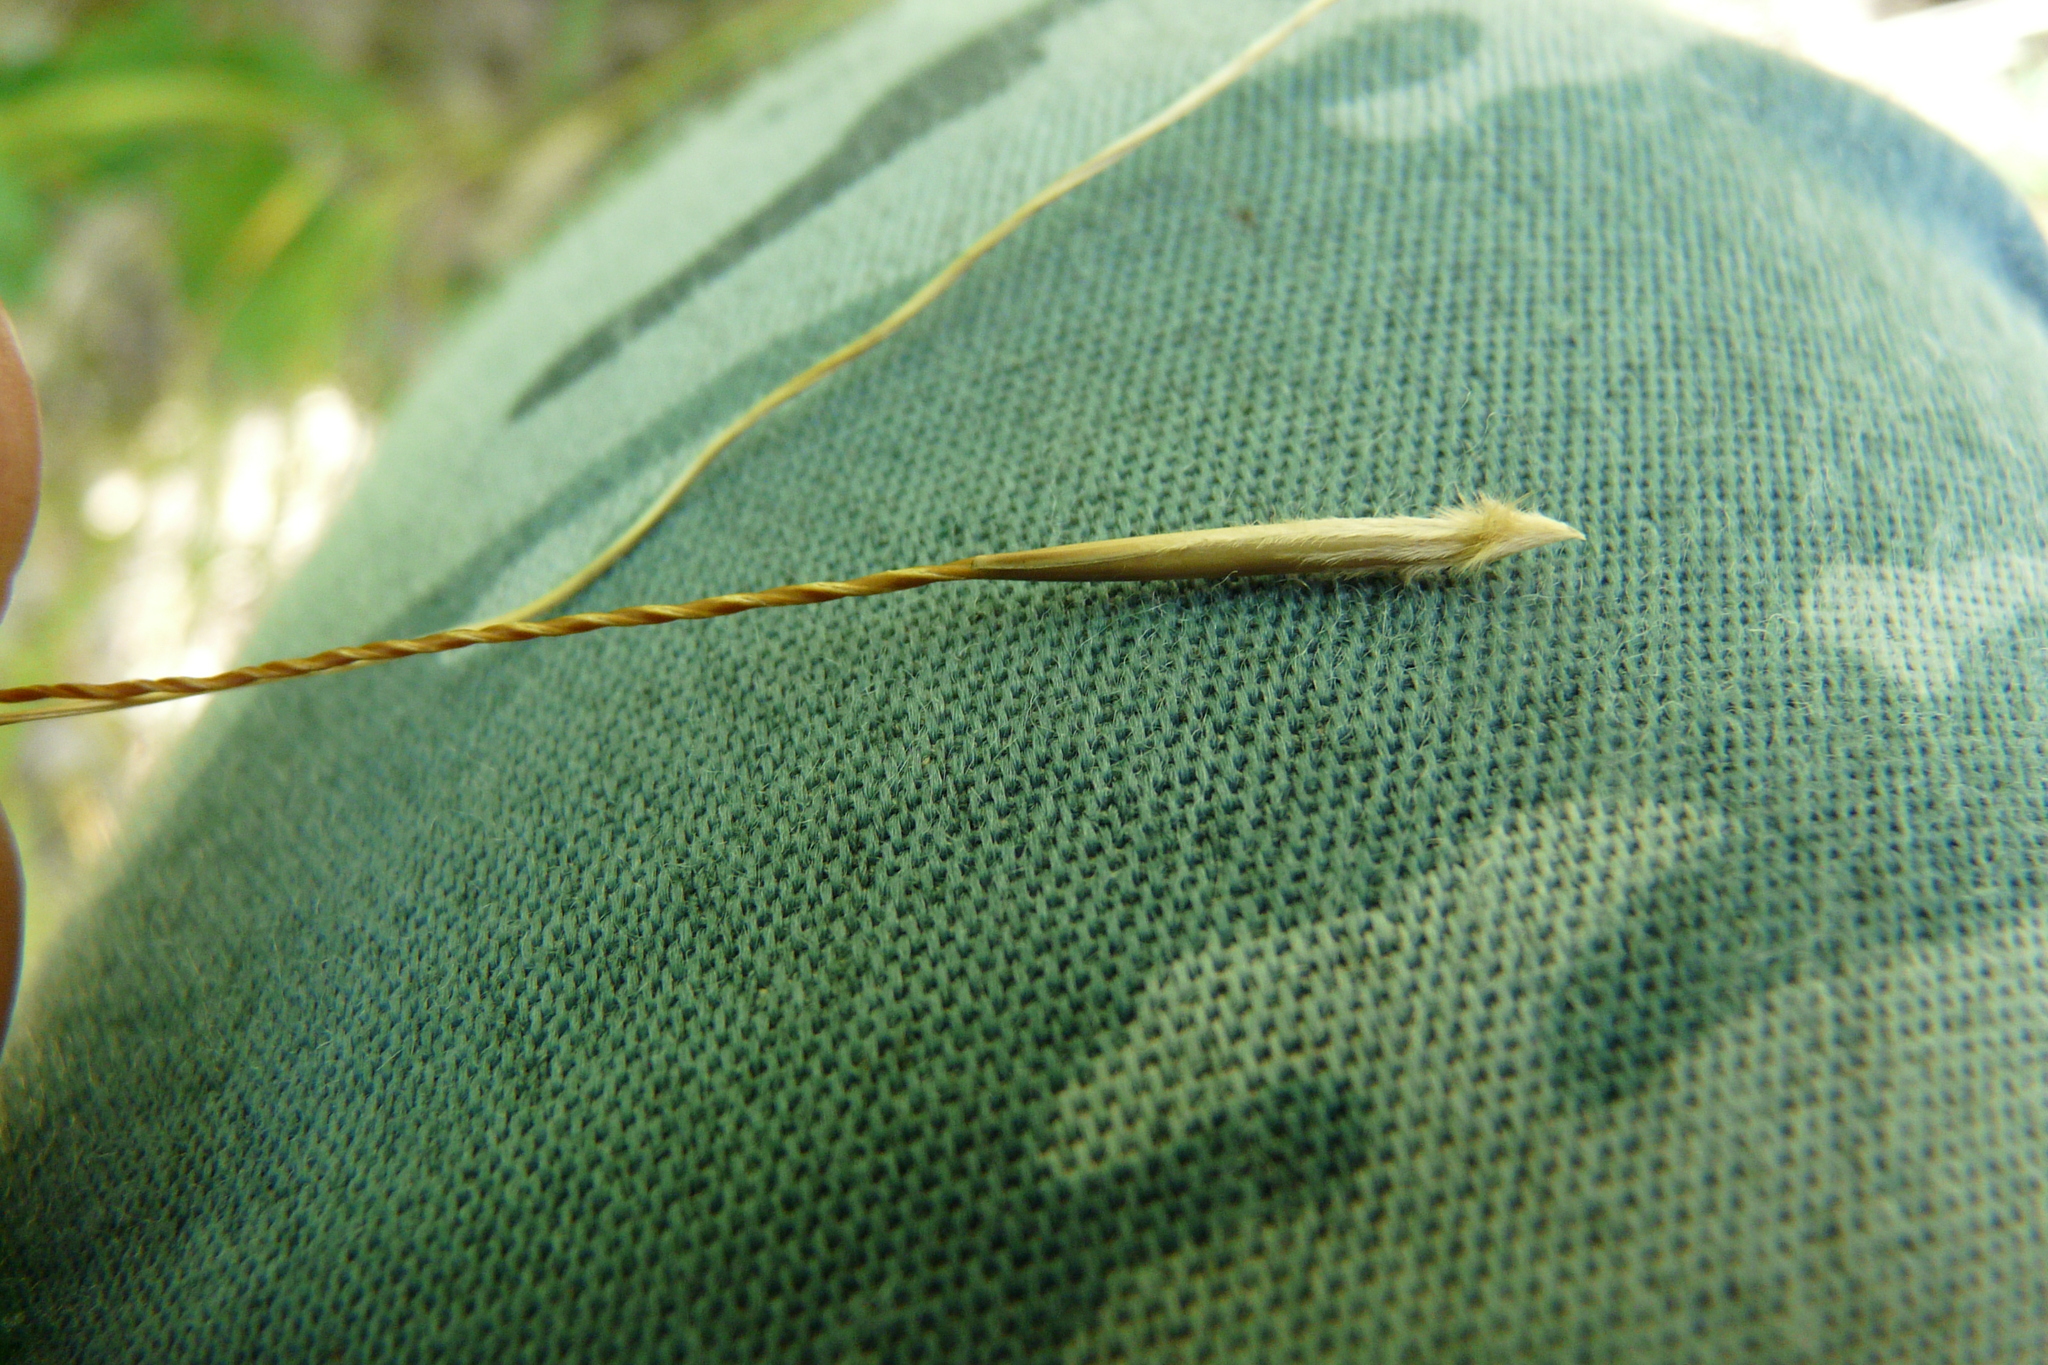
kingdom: Plantae
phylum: Tracheophyta
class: Liliopsida
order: Poales
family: Poaceae
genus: Stipa
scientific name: Stipa pennata
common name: European feather grass
